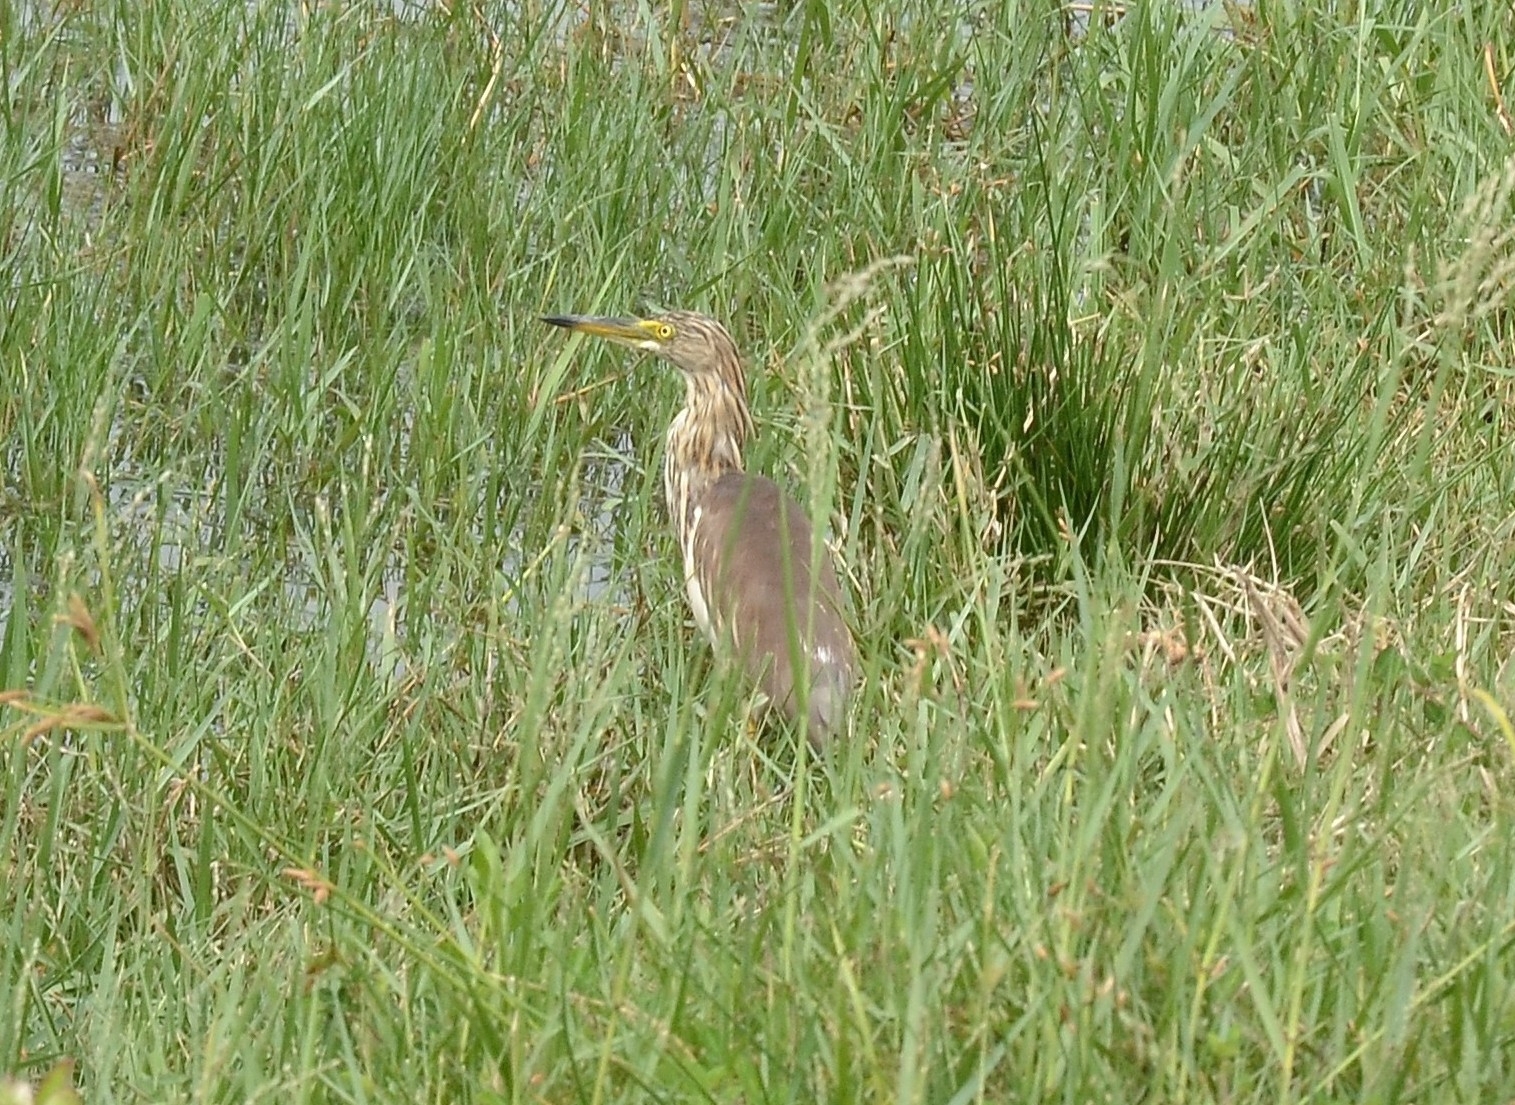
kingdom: Animalia
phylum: Chordata
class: Aves
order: Pelecaniformes
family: Ardeidae
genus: Ardeola
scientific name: Ardeola grayii
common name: Indian pond heron
